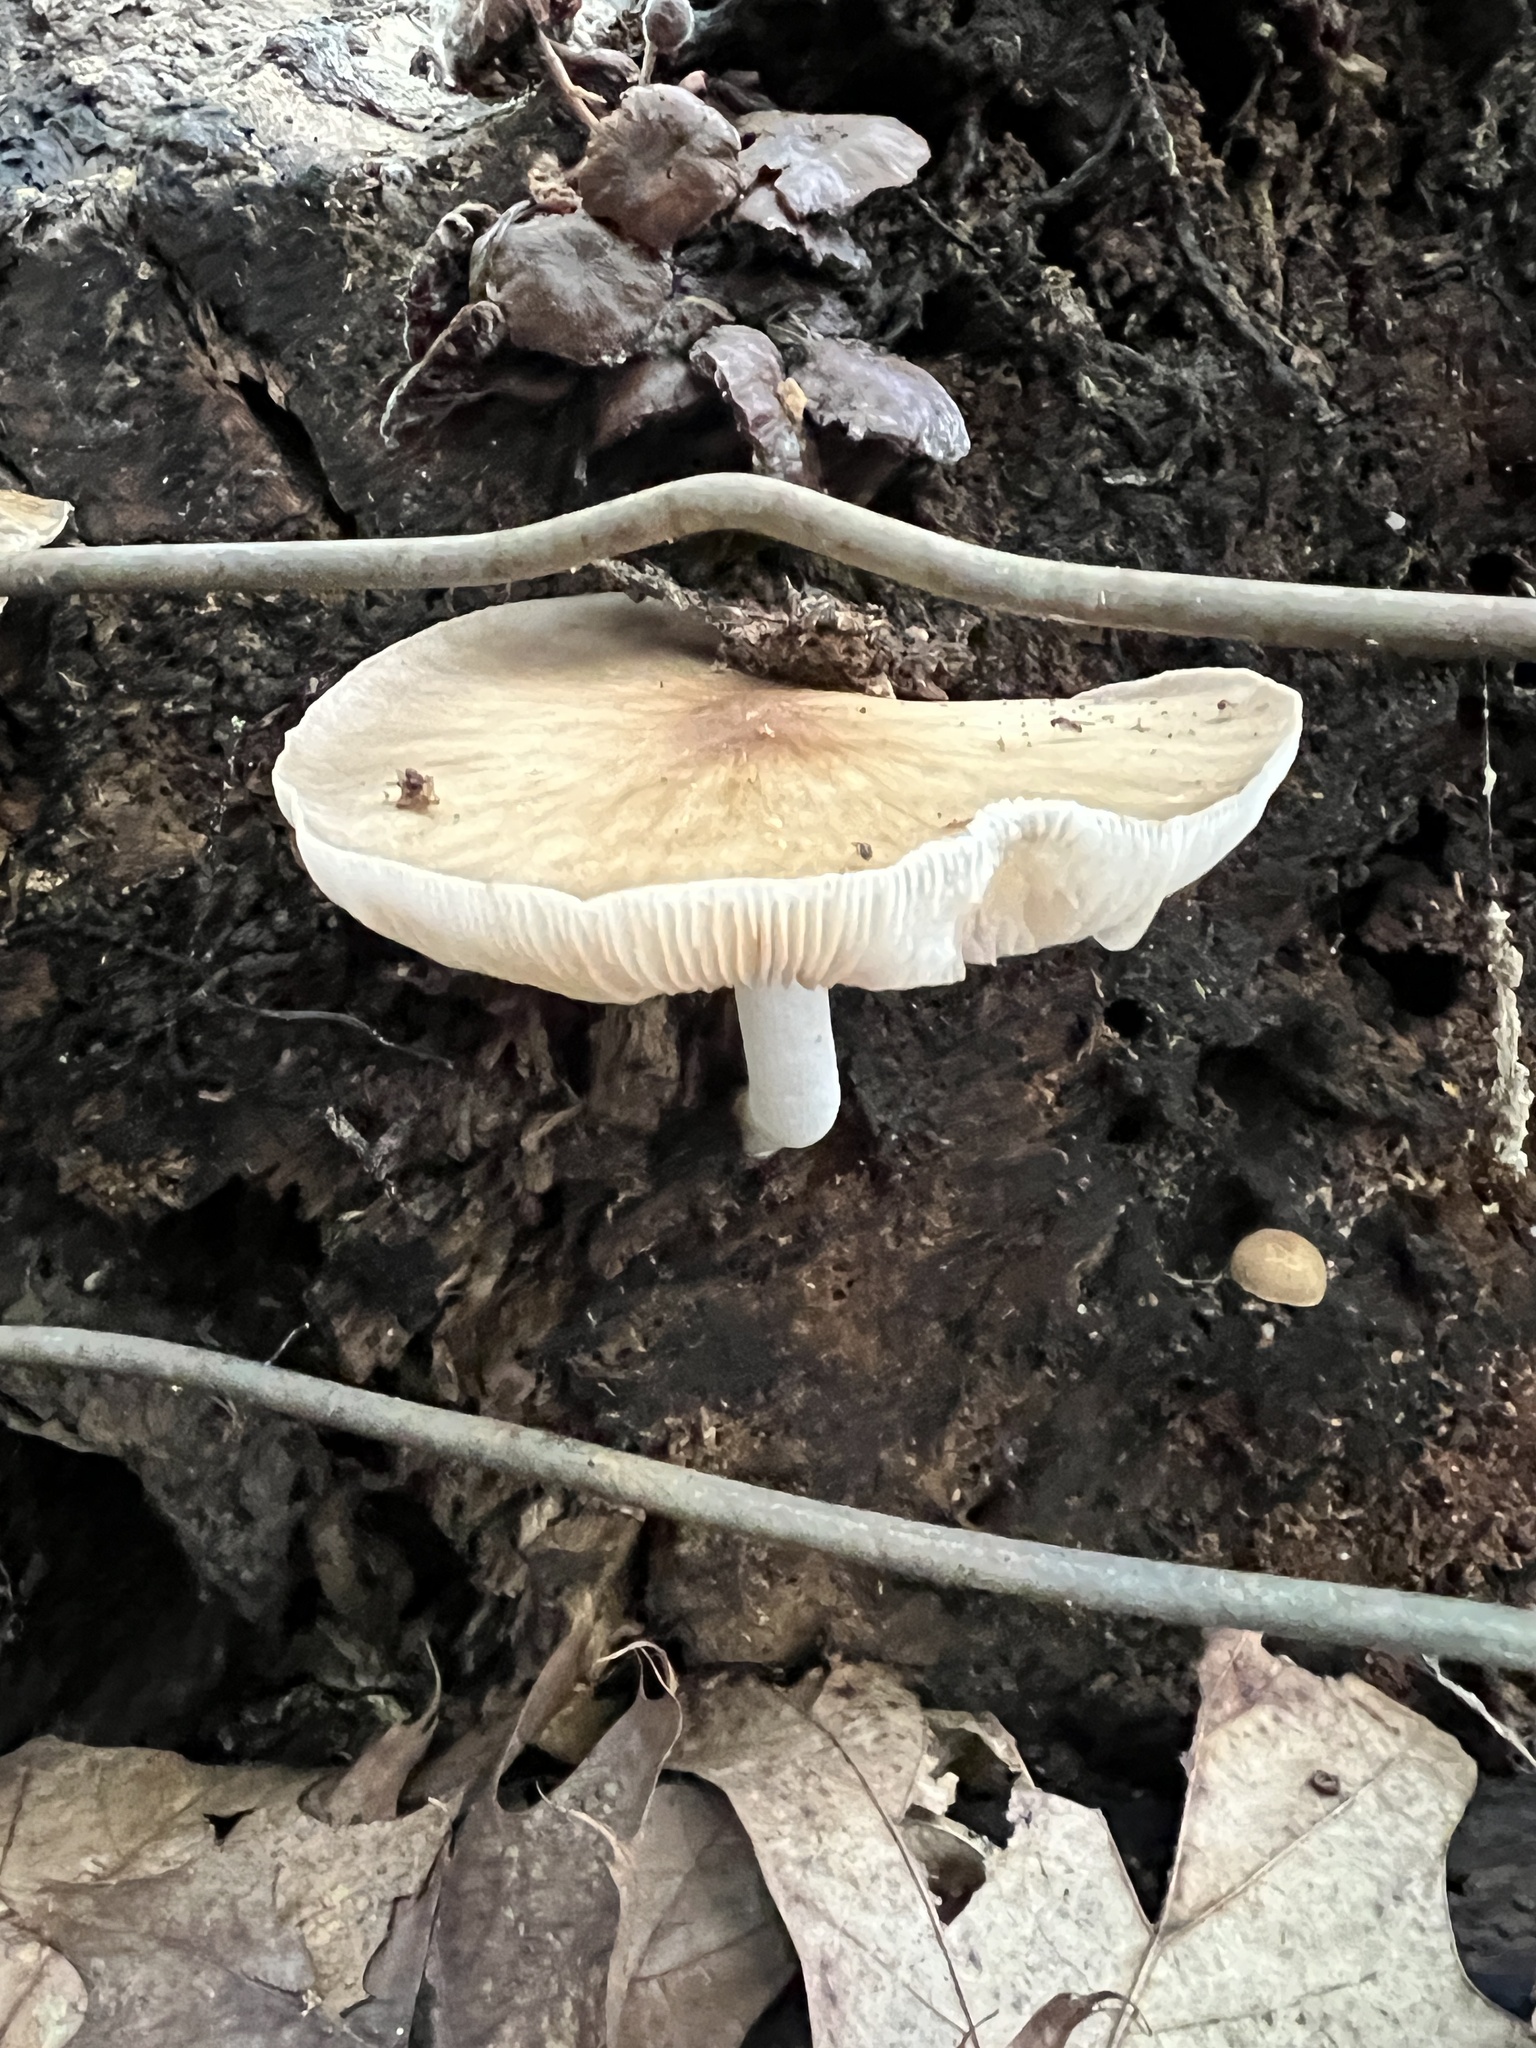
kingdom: Fungi
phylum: Basidiomycota
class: Agaricomycetes
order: Agaricales
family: Pluteaceae
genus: Pluteus
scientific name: Pluteus cervinus
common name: Deer shield
